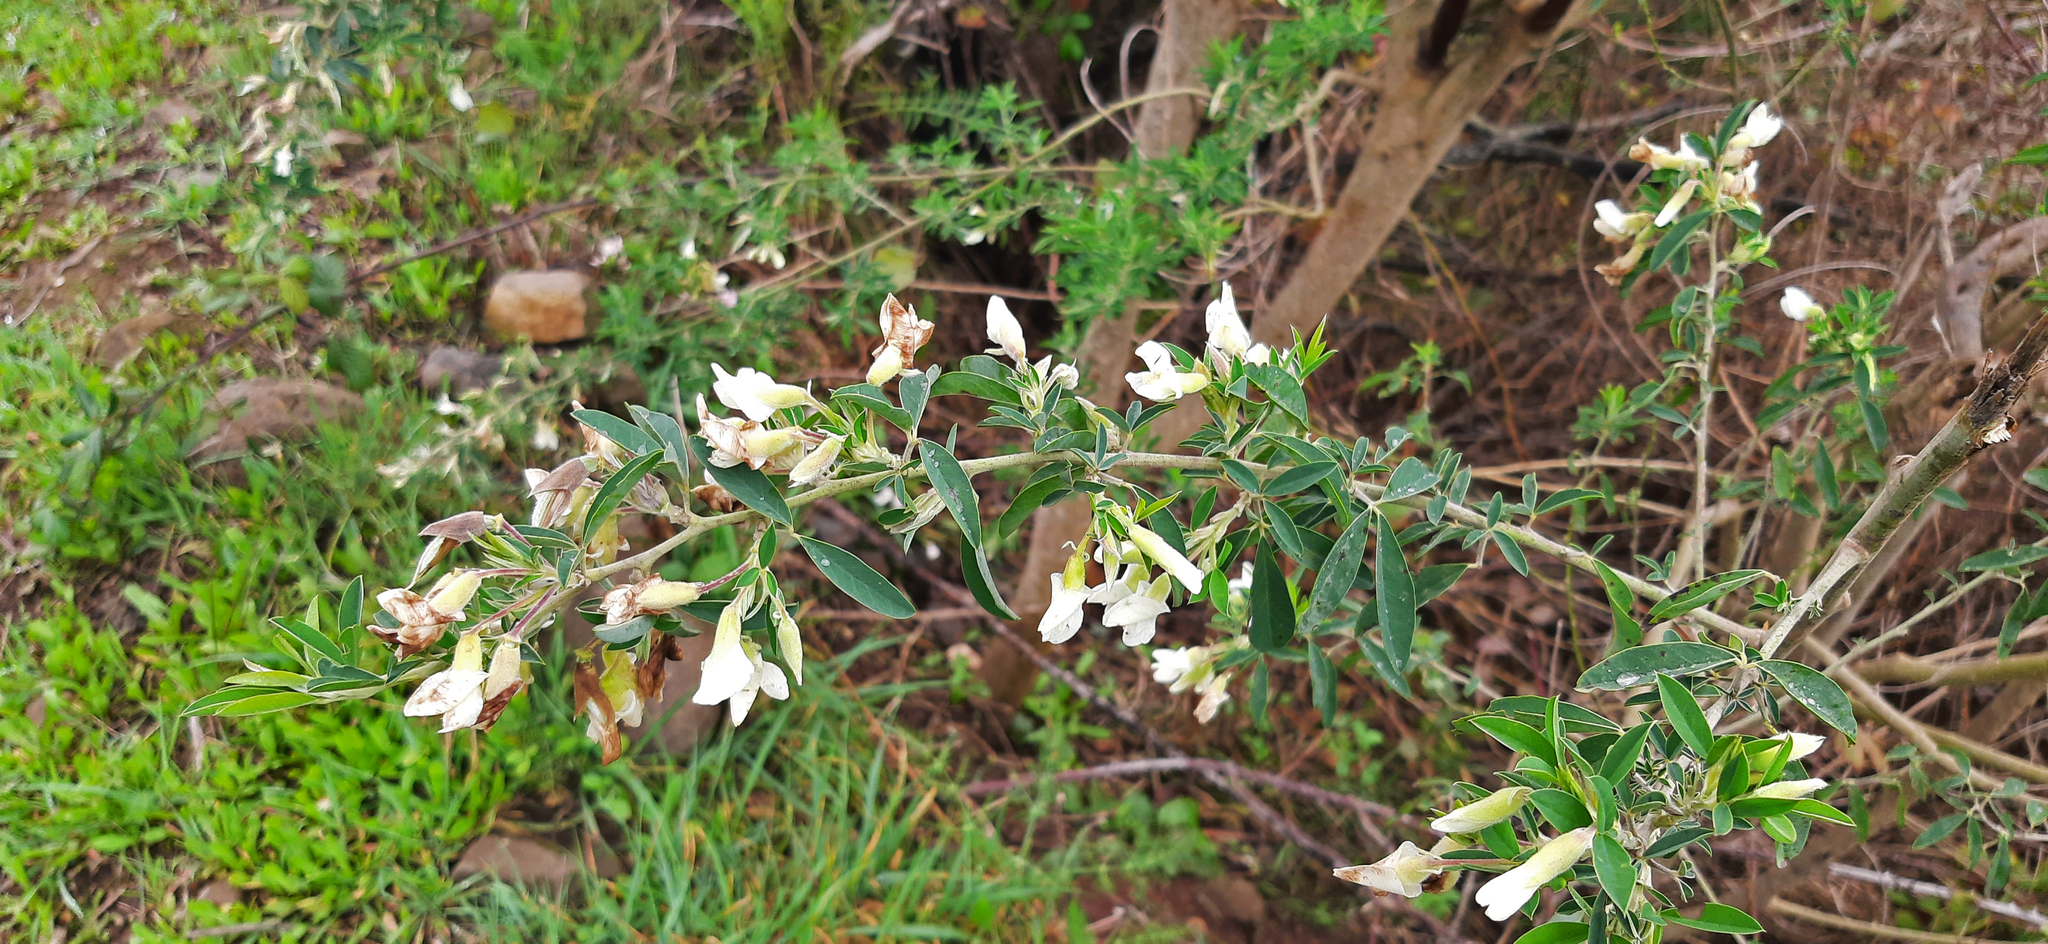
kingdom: Plantae
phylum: Tracheophyta
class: Magnoliopsida
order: Fabales
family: Fabaceae
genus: Chamaecytisus
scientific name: Chamaecytisus prolifer
